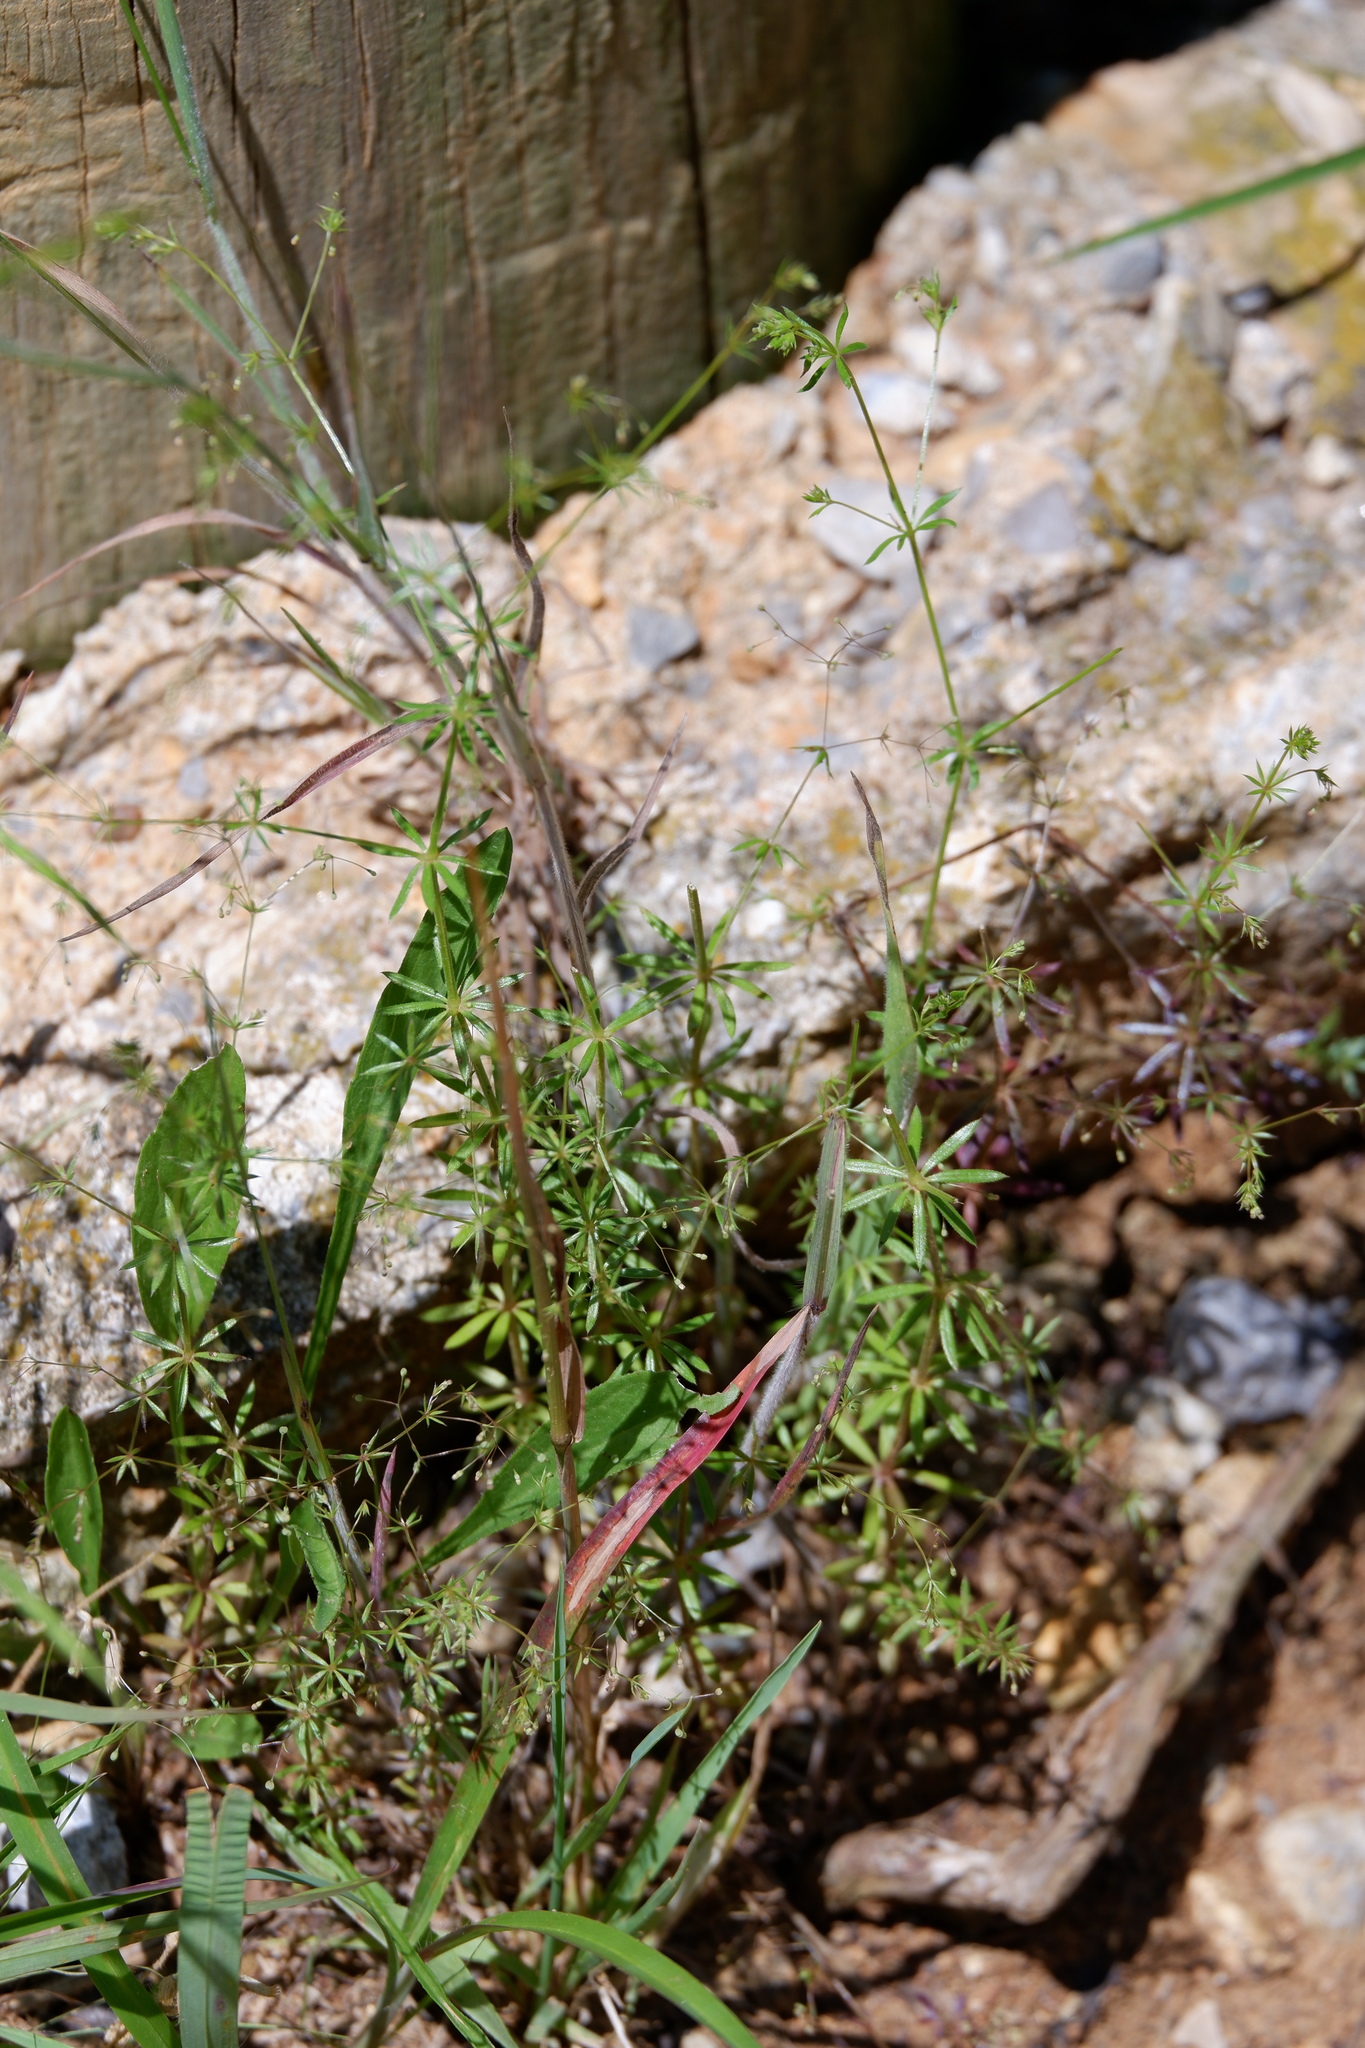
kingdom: Plantae
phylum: Tracheophyta
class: Magnoliopsida
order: Gentianales
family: Rubiaceae
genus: Galium
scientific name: Galium divaricatum
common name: Lamarck's bedstraw
